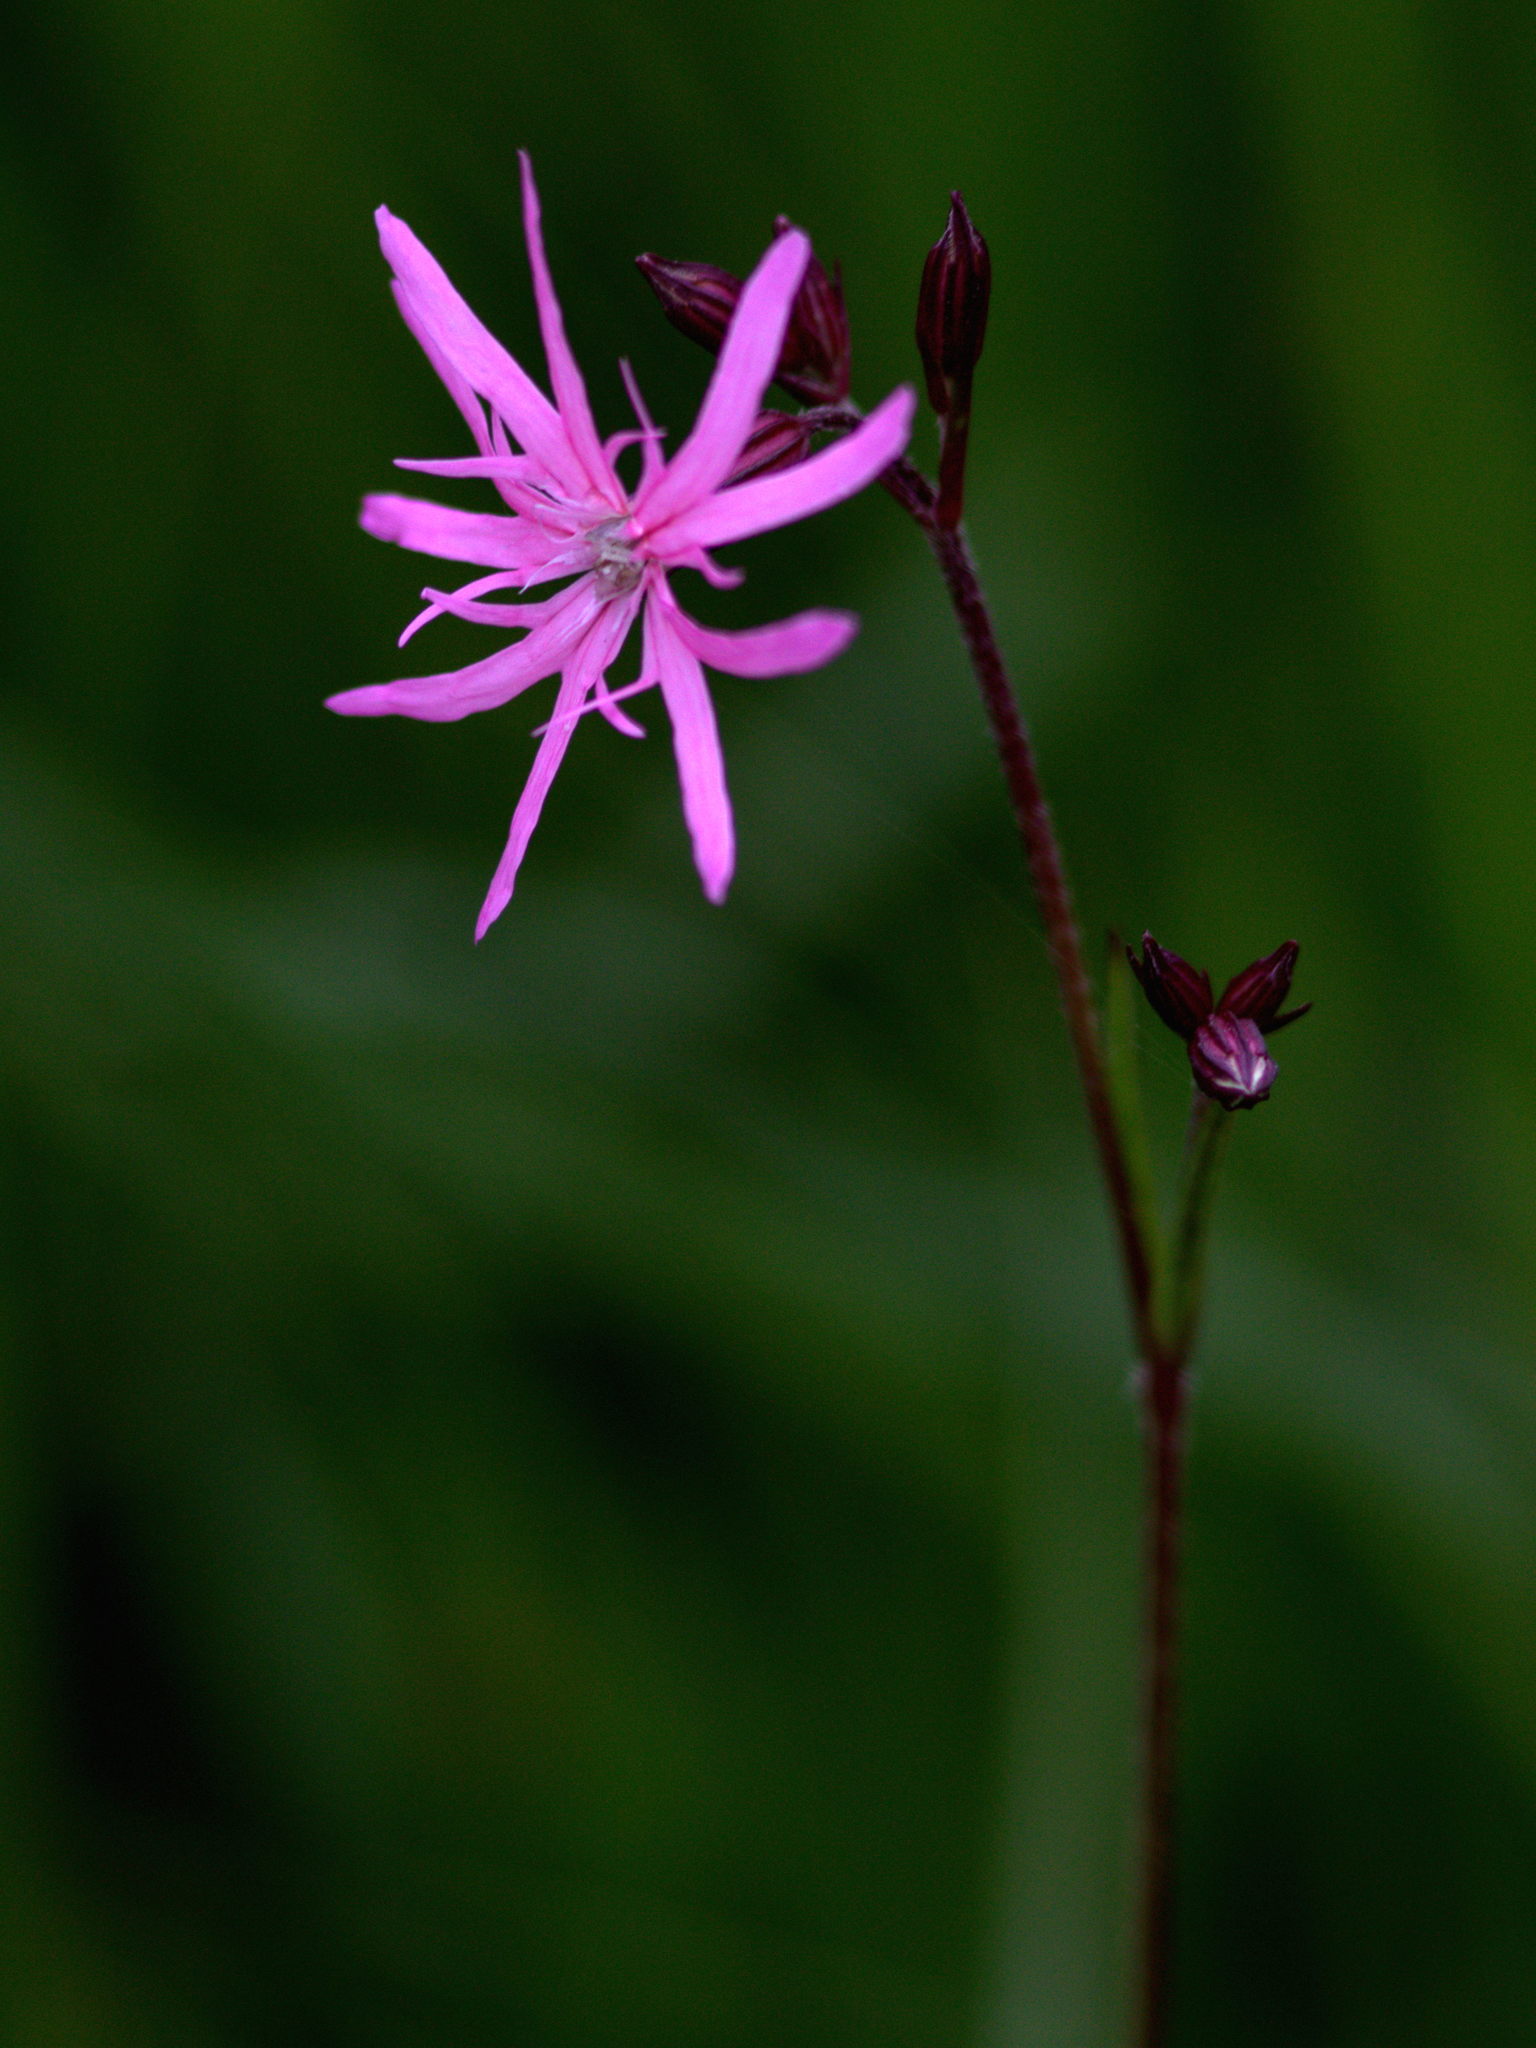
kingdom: Plantae
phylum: Tracheophyta
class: Magnoliopsida
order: Caryophyllales
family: Caryophyllaceae
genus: Silene
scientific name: Silene flos-cuculi
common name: Ragged-robin
